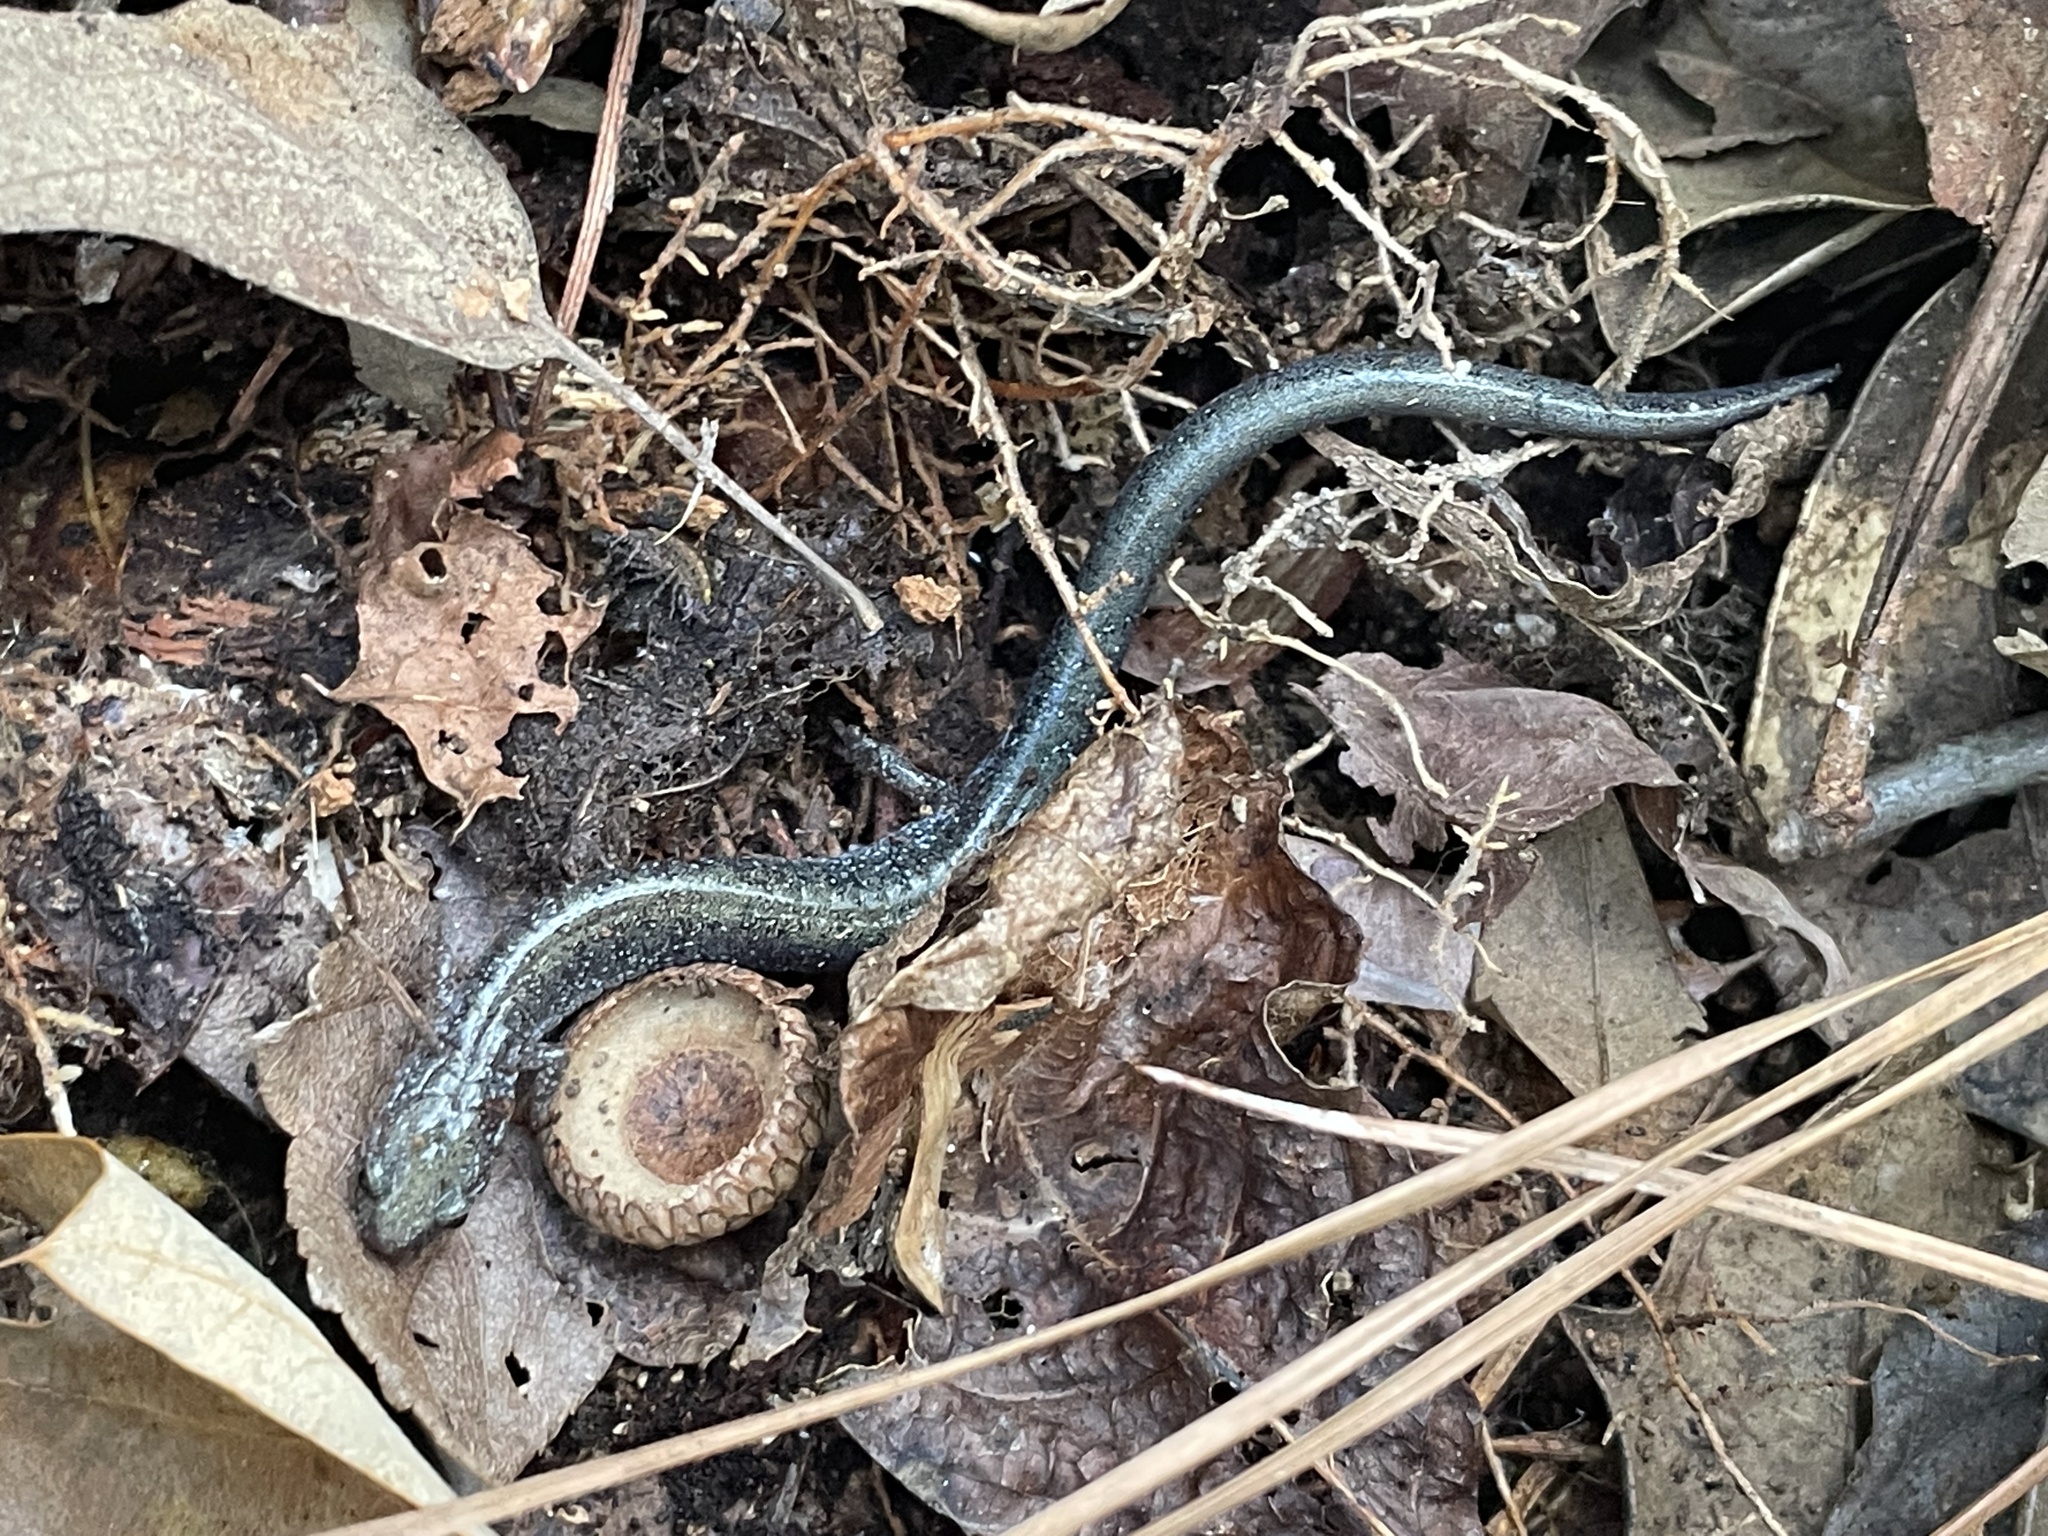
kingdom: Animalia
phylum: Chordata
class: Amphibia
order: Caudata
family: Plethodontidae
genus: Plethodon
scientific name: Plethodon cinereus
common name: Redback salamander
